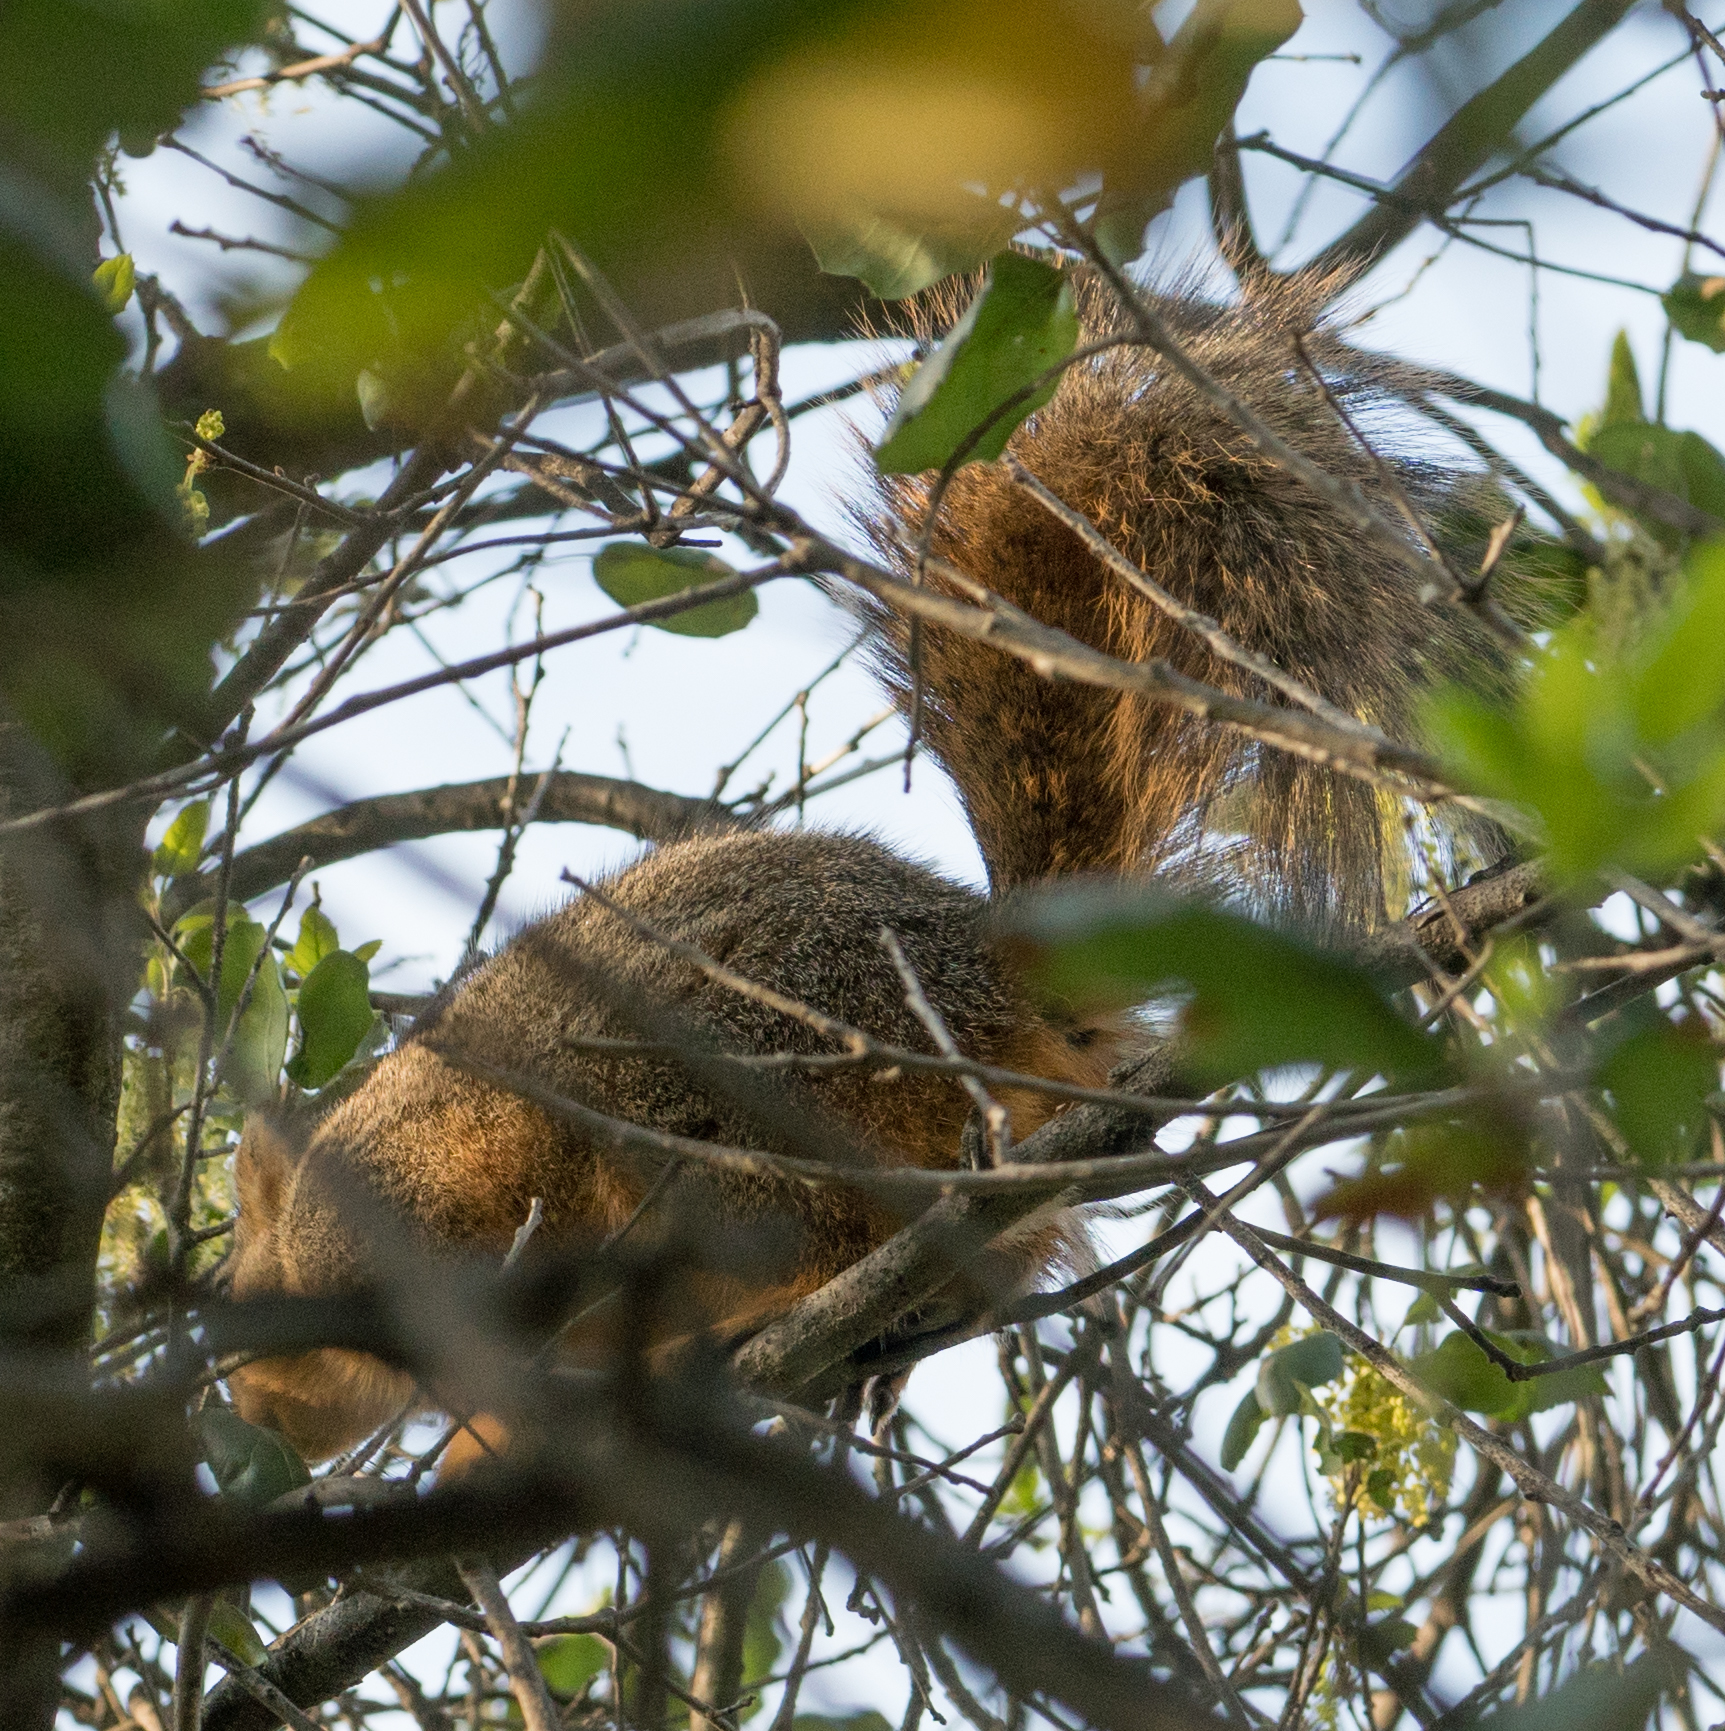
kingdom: Animalia
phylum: Chordata
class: Mammalia
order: Rodentia
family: Sciuridae
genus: Sciurus
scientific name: Sciurus niger
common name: Fox squirrel
